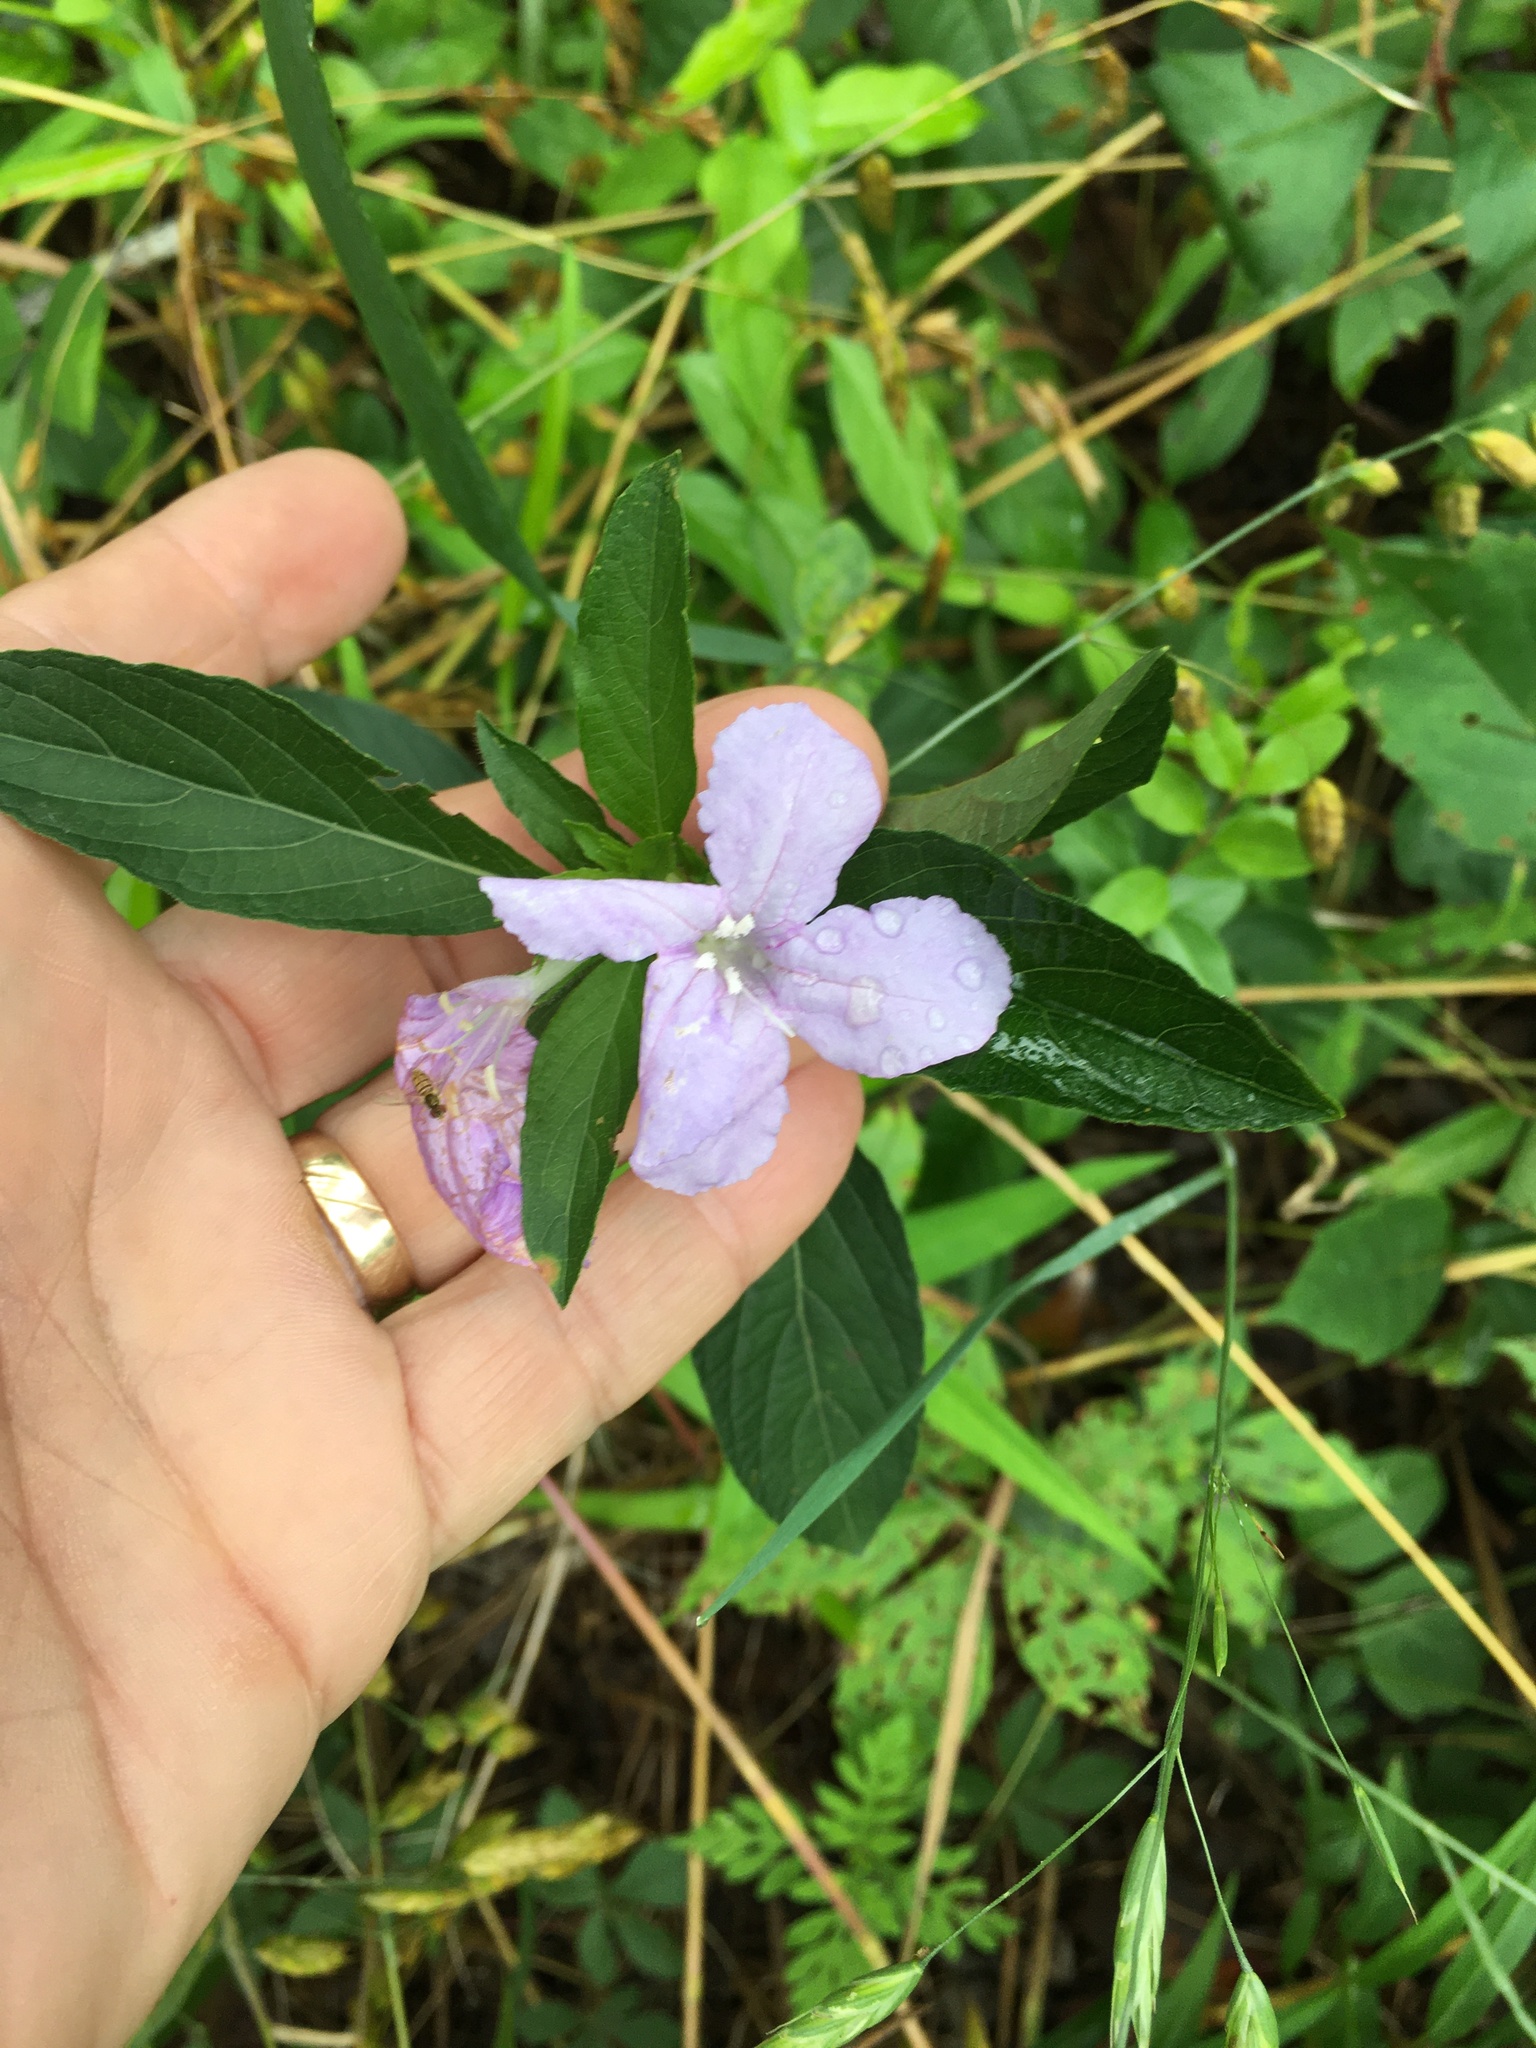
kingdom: Plantae
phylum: Tracheophyta
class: Magnoliopsida
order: Lamiales
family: Acanthaceae
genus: Ruellia
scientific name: Ruellia caroliniensis
